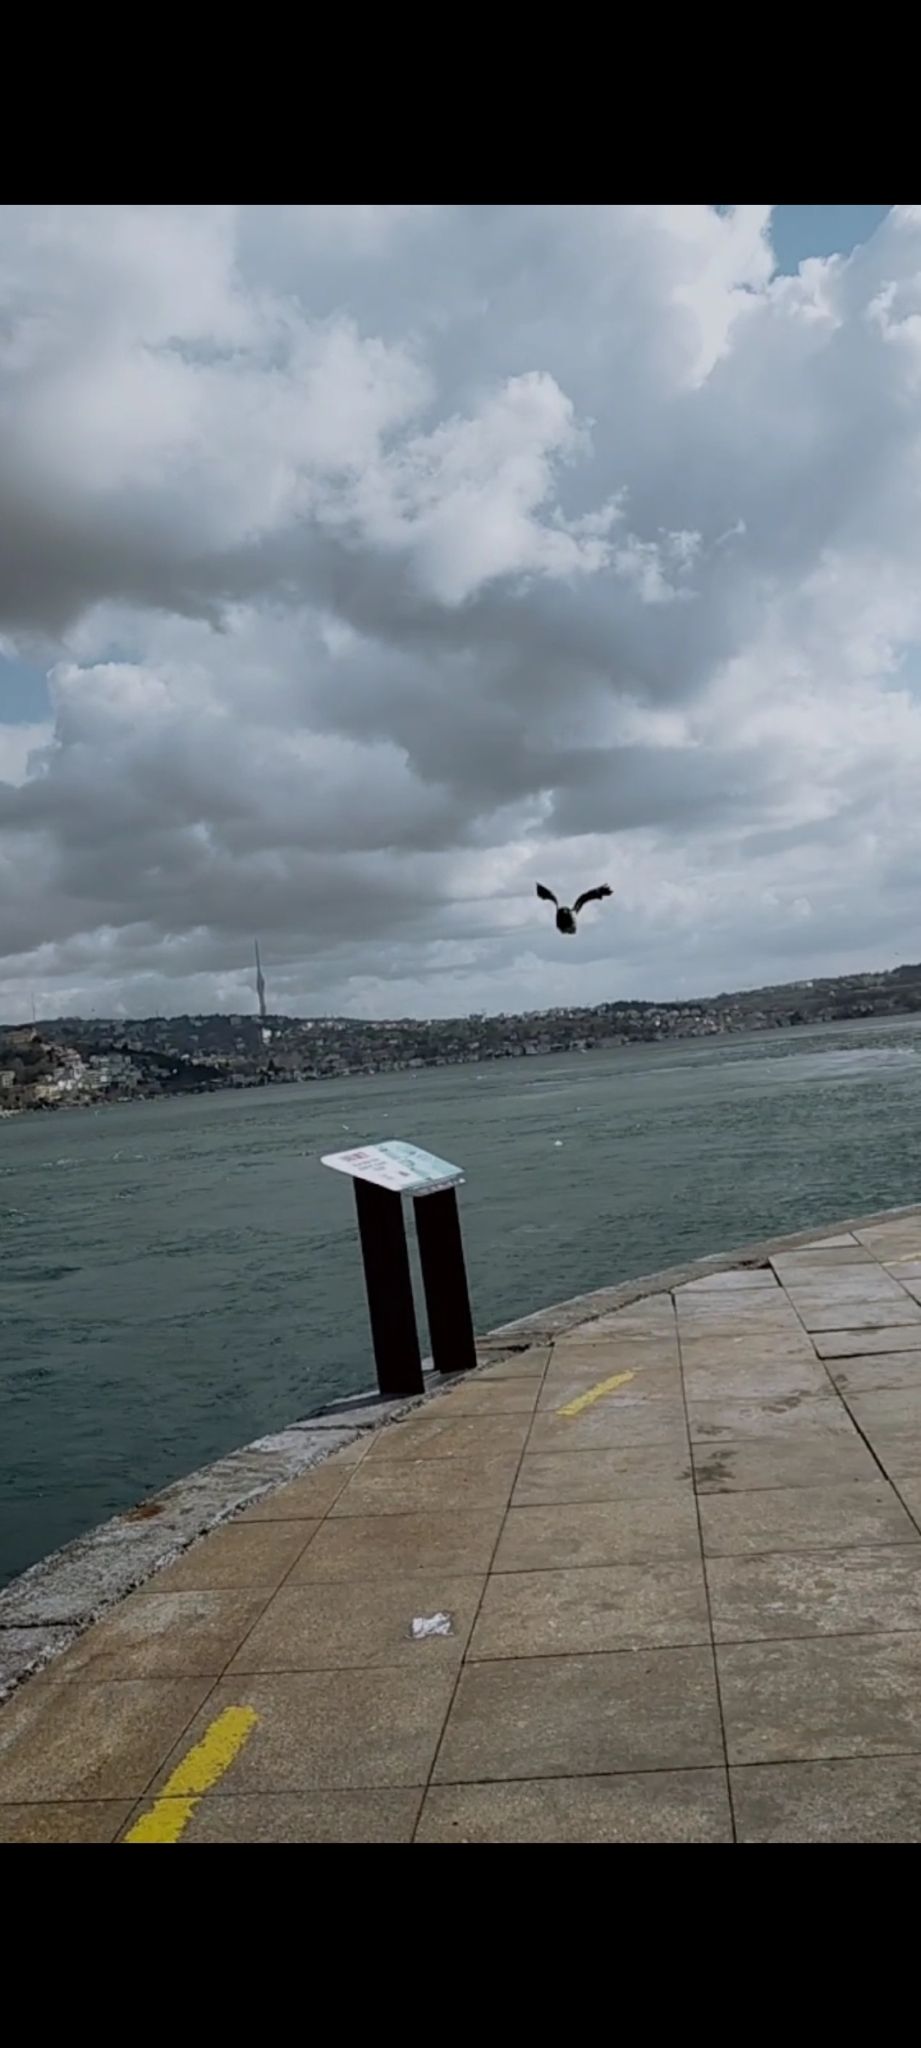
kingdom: Animalia
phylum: Chordata
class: Aves
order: Passeriformes
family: Corvidae
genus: Corvus
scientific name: Corvus cornix
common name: Hooded crow
